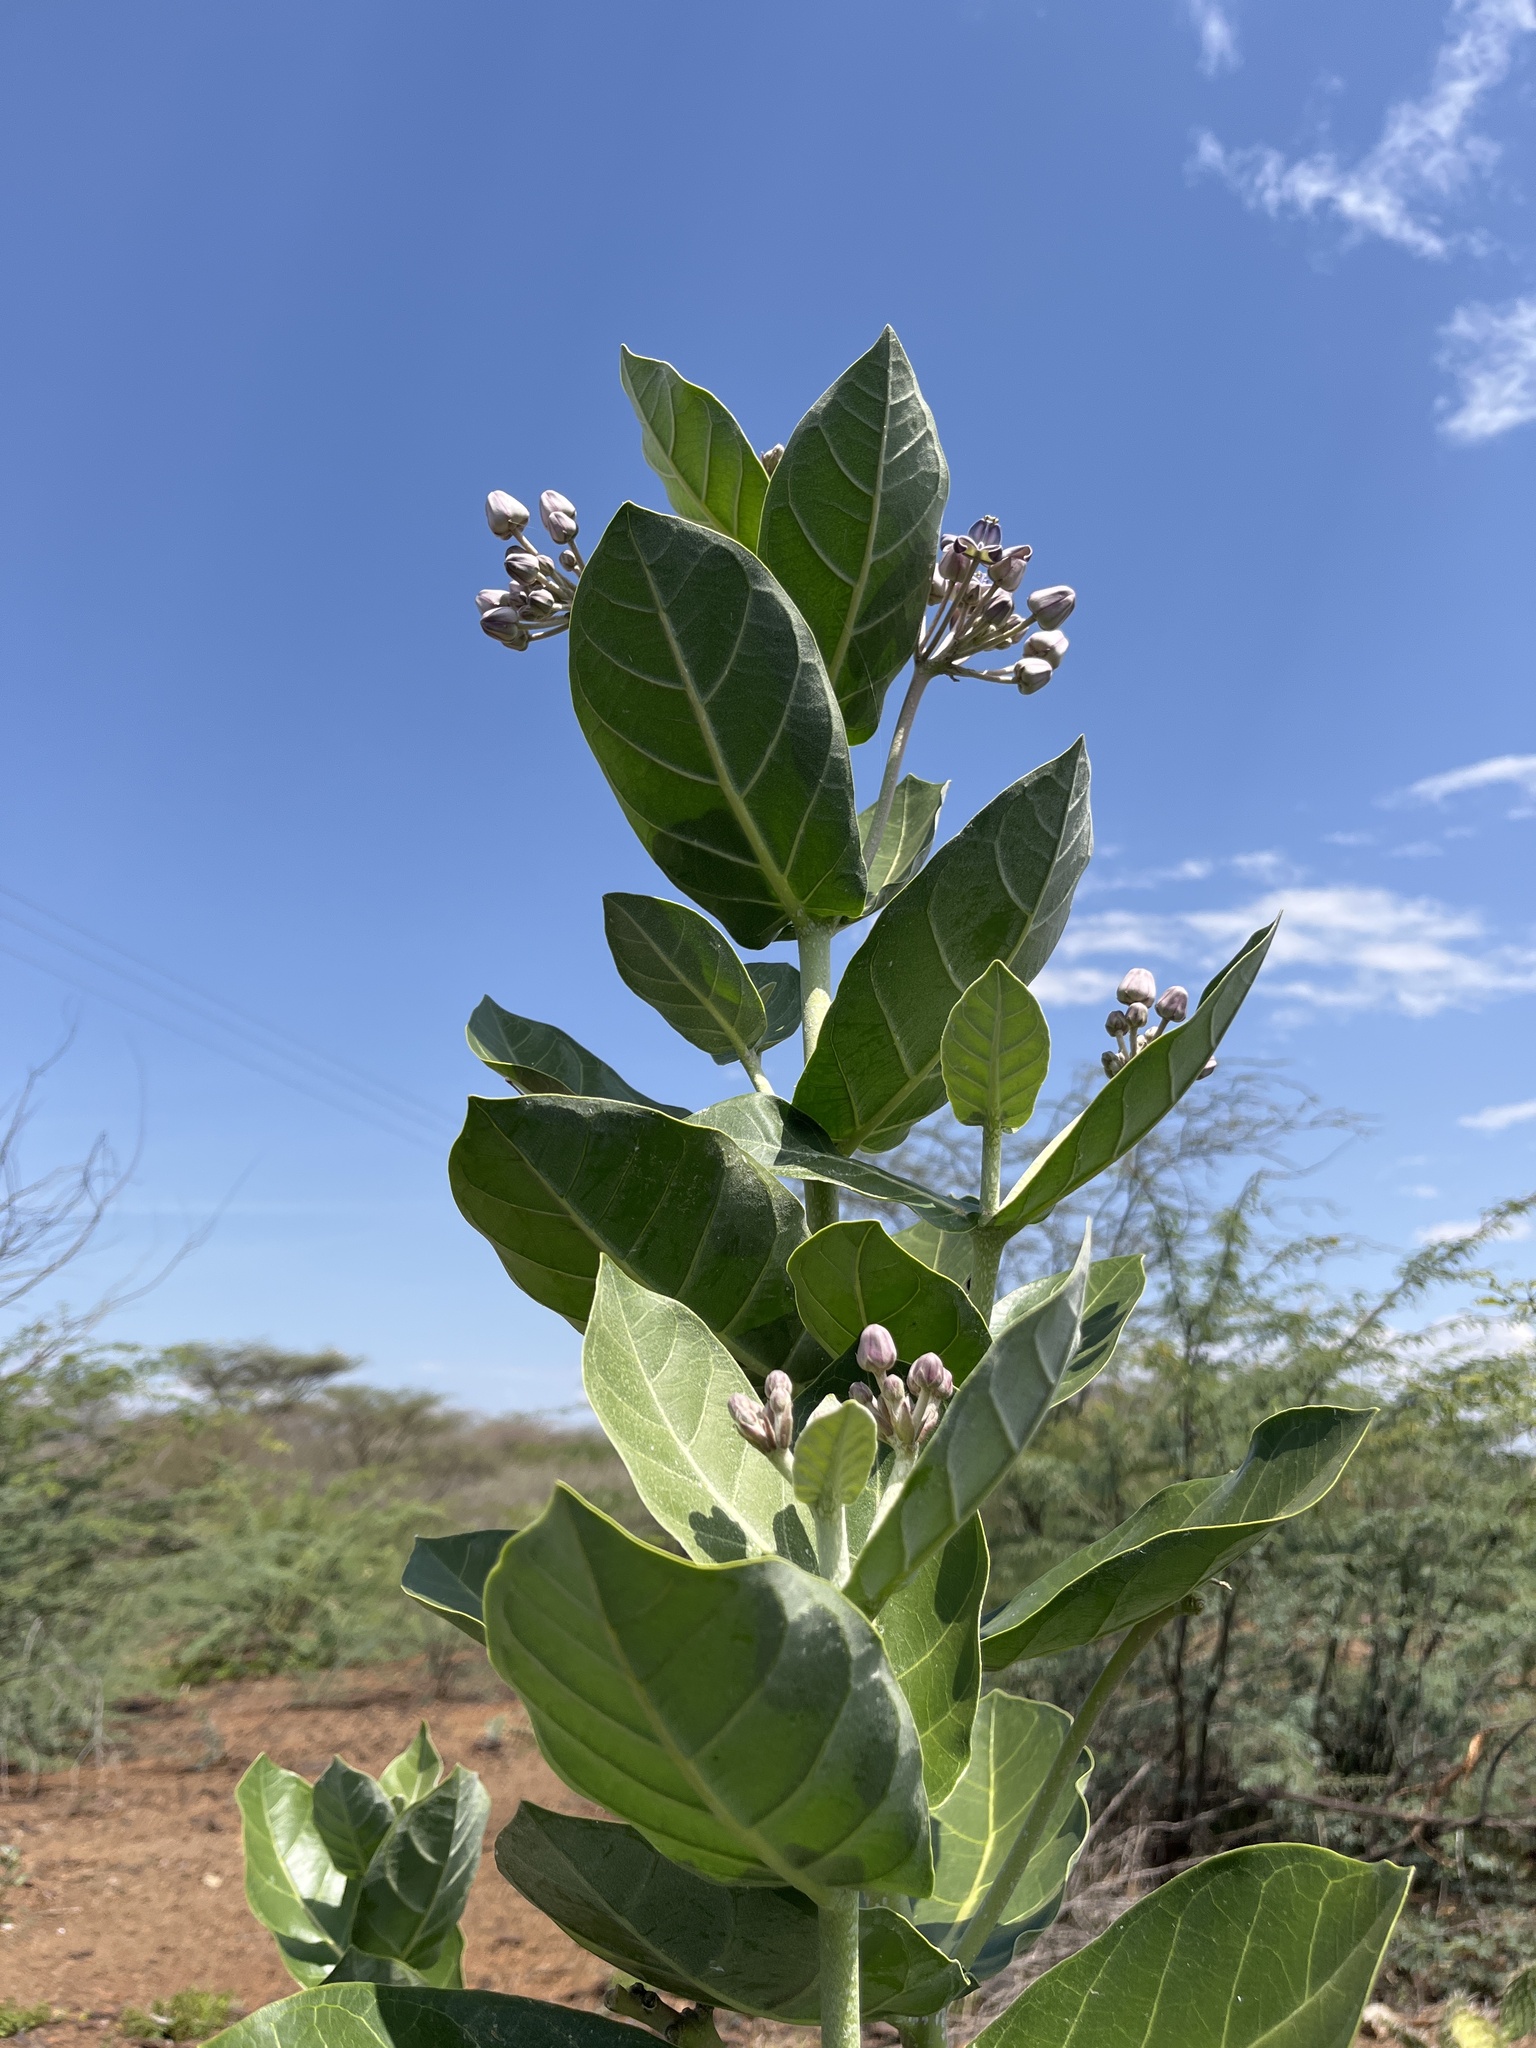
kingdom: Plantae
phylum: Tracheophyta
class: Magnoliopsida
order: Gentianales
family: Apocynaceae
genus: Calotropis
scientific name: Calotropis gigantea
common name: Crown flower
